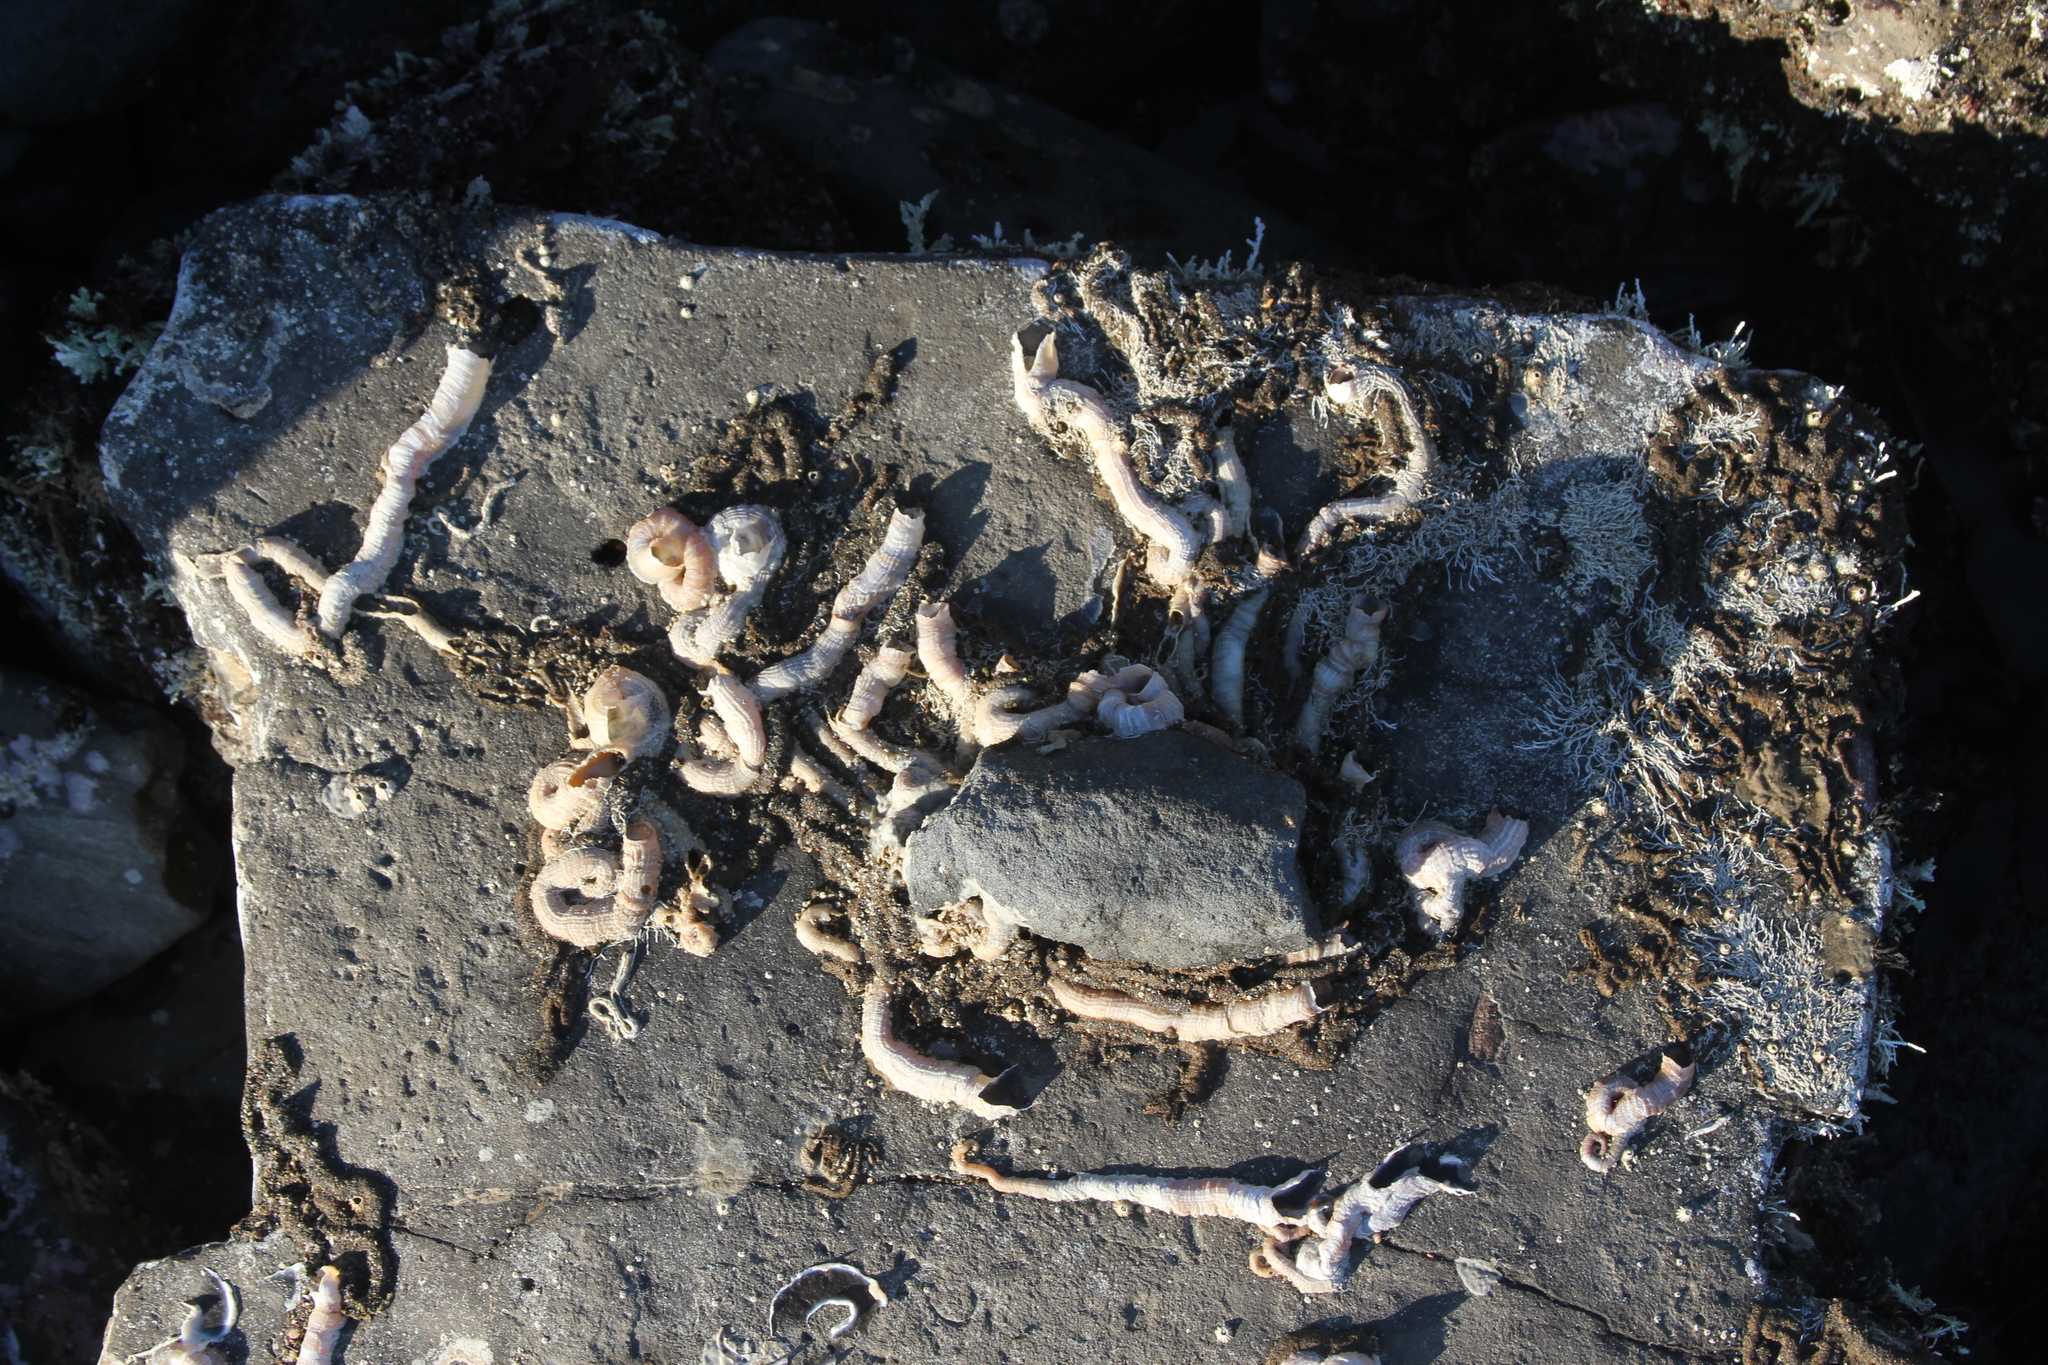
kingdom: Animalia
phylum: Mollusca
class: Gastropoda
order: Littorinimorpha
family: Vermetidae
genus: Thylacodes
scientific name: Thylacodes squamigerus
